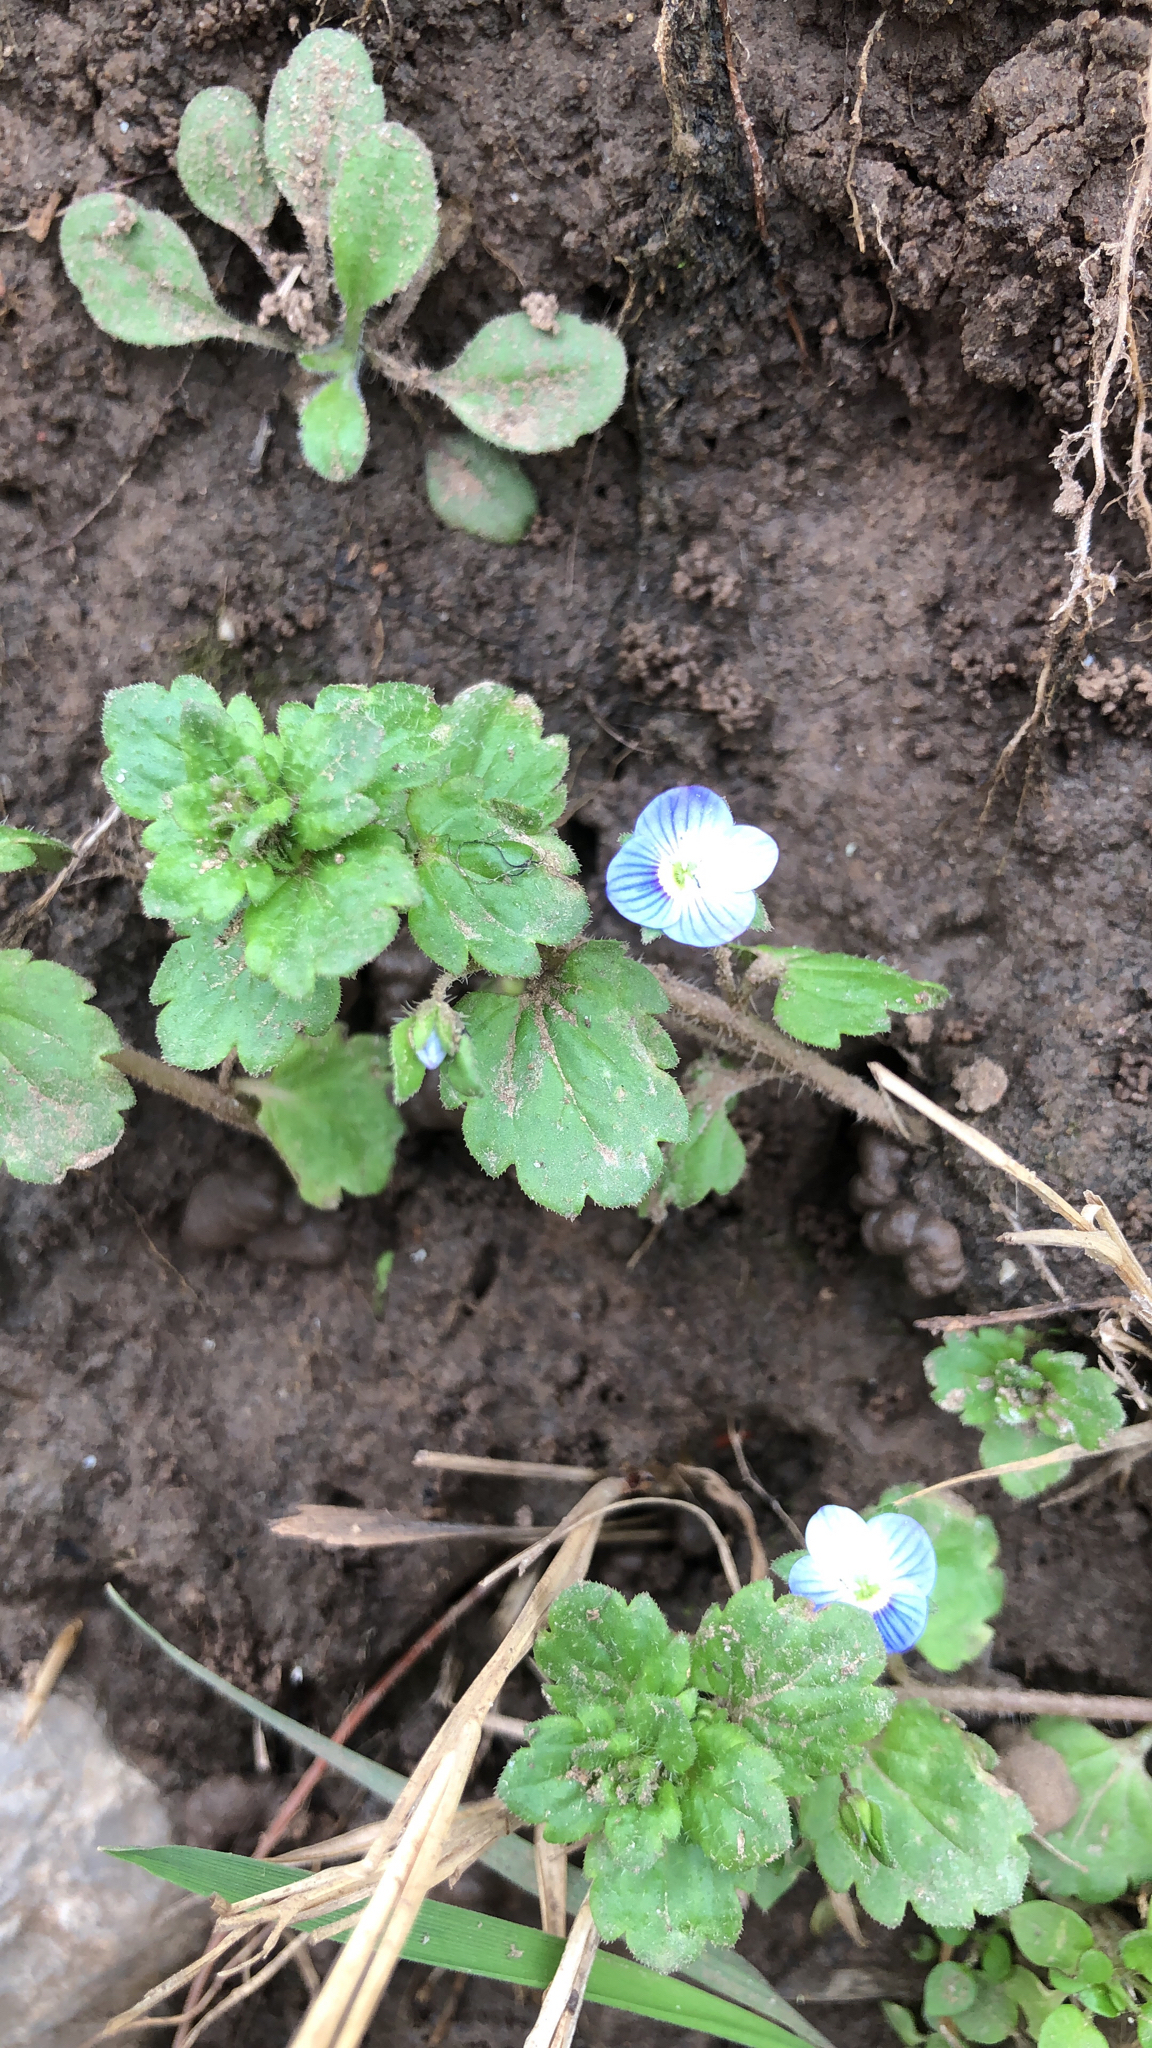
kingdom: Plantae
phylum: Tracheophyta
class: Magnoliopsida
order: Lamiales
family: Plantaginaceae
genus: Veronica
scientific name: Veronica persica
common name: Common field-speedwell
